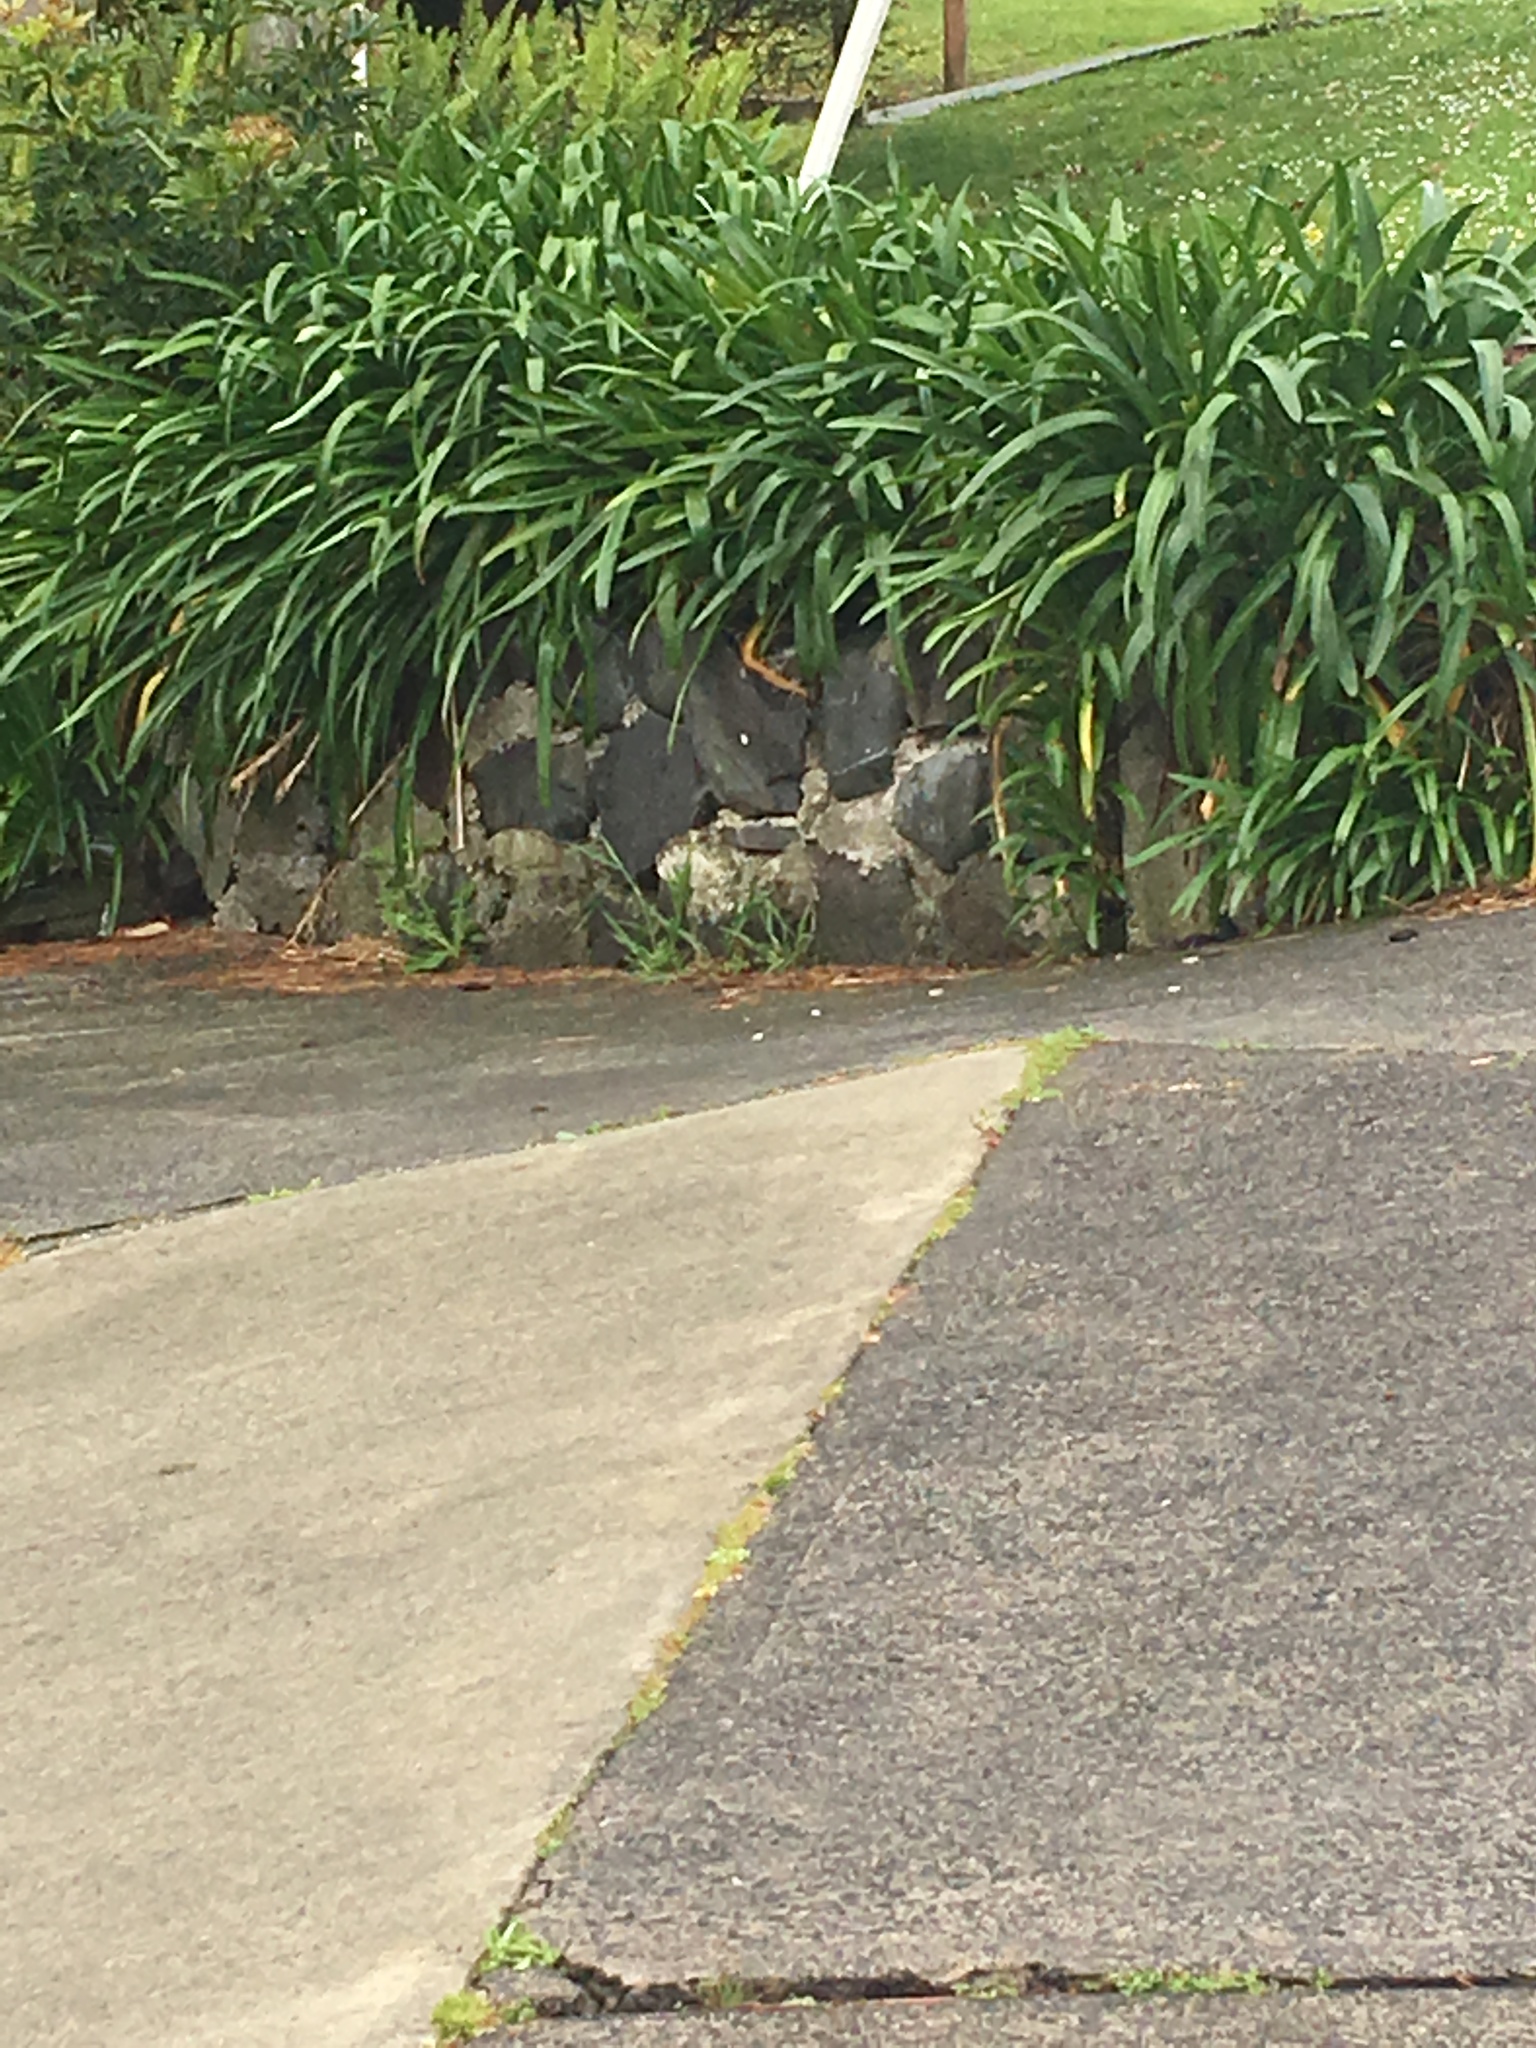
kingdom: Plantae
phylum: Tracheophyta
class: Liliopsida
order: Asparagales
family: Amaryllidaceae
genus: Agapanthus
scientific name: Agapanthus praecox
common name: African-lily
